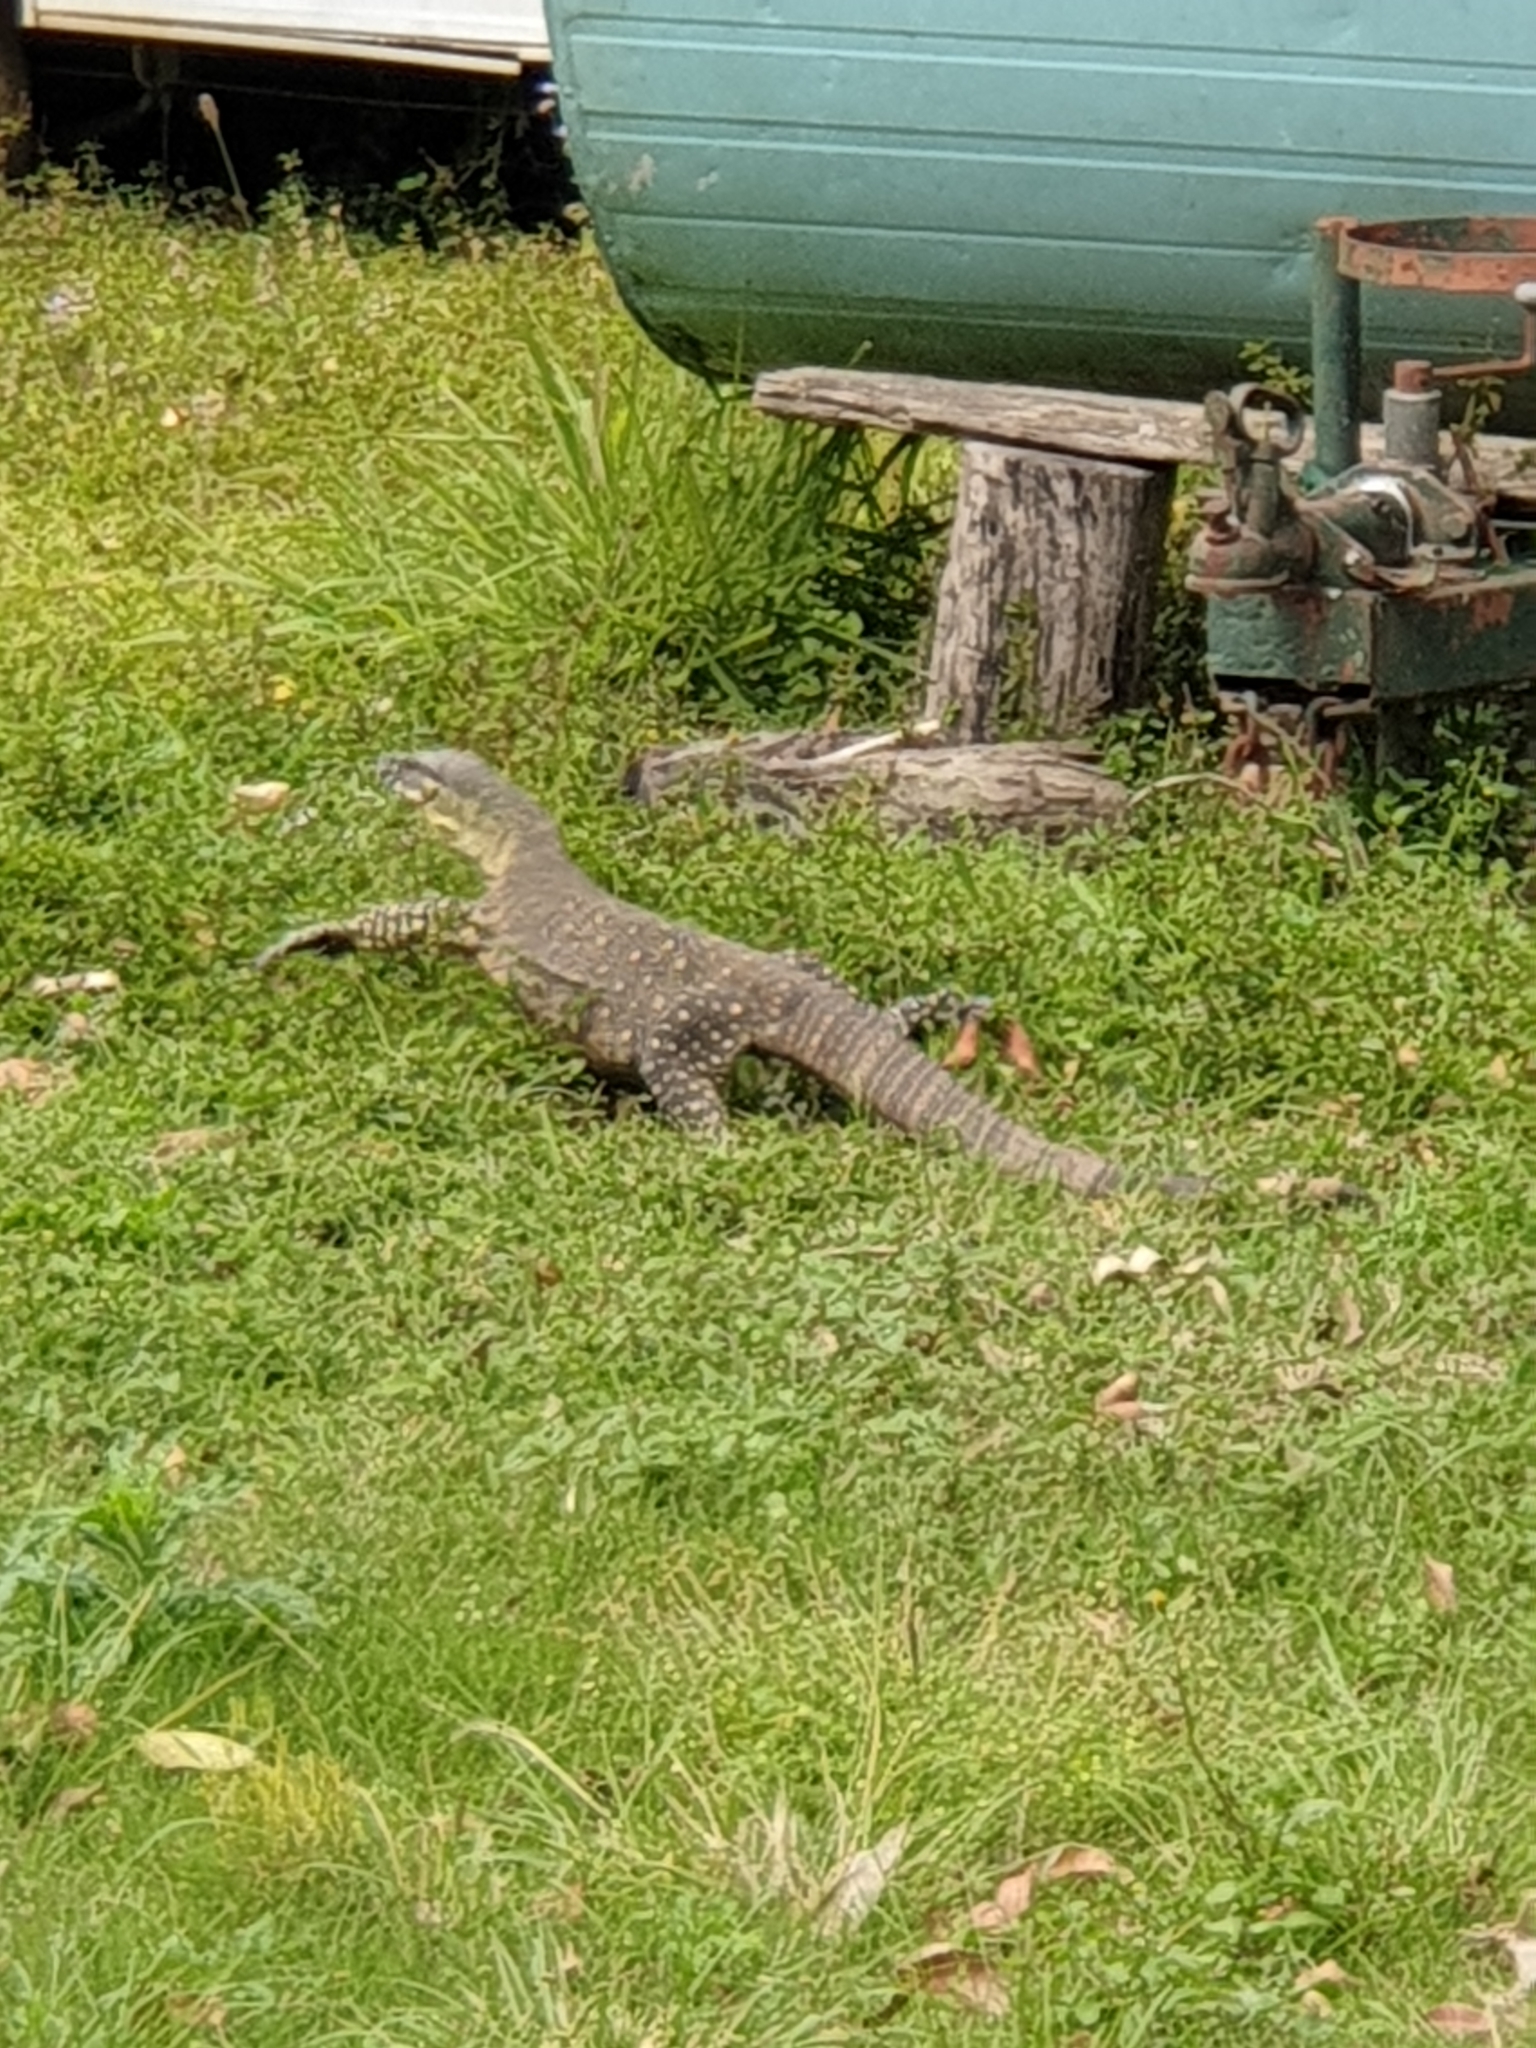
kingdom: Animalia
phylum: Chordata
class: Squamata
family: Varanidae
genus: Varanus
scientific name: Varanus varius
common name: Lace monitor
